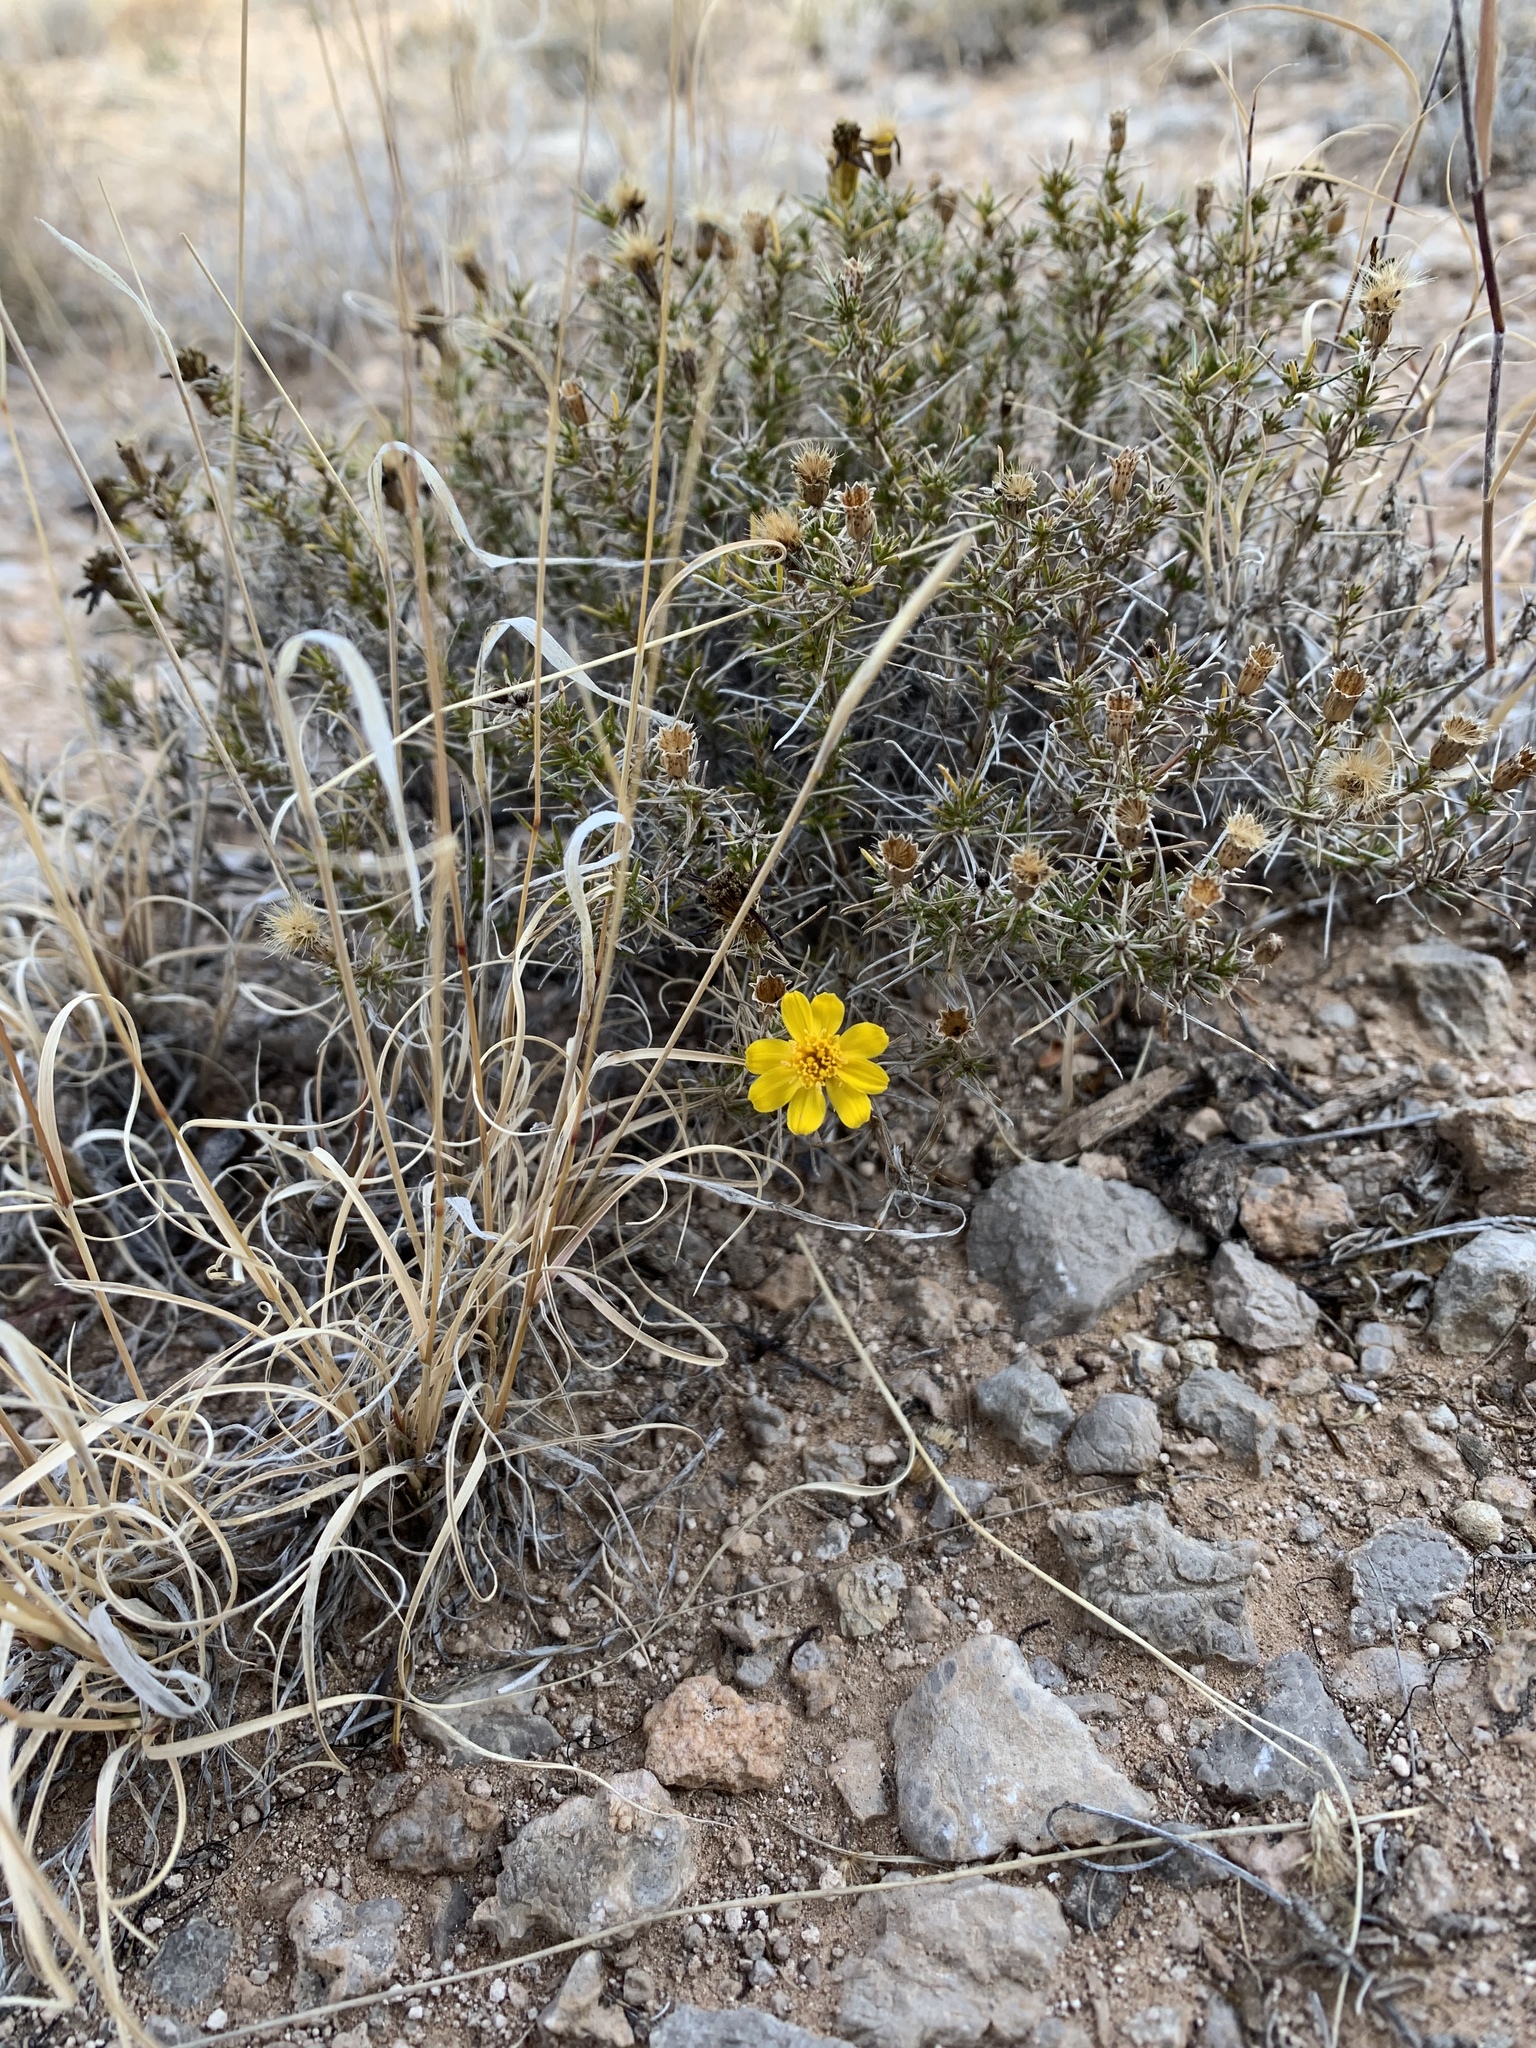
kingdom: Plantae
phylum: Tracheophyta
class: Magnoliopsida
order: Asterales
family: Asteraceae
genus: Thymophylla
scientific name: Thymophylla acerosa
